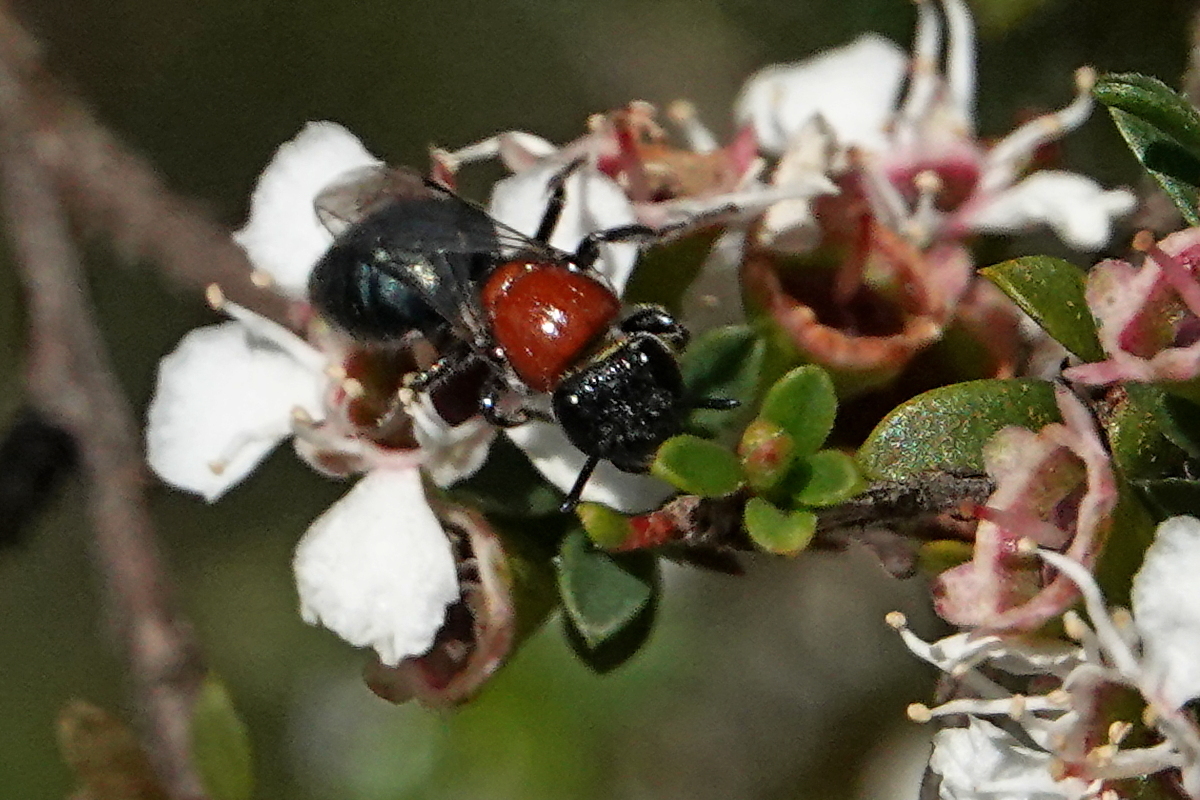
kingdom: Animalia
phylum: Arthropoda
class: Insecta
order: Hymenoptera
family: Colletidae
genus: Euryglossa
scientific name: Euryglossa ephippiata
